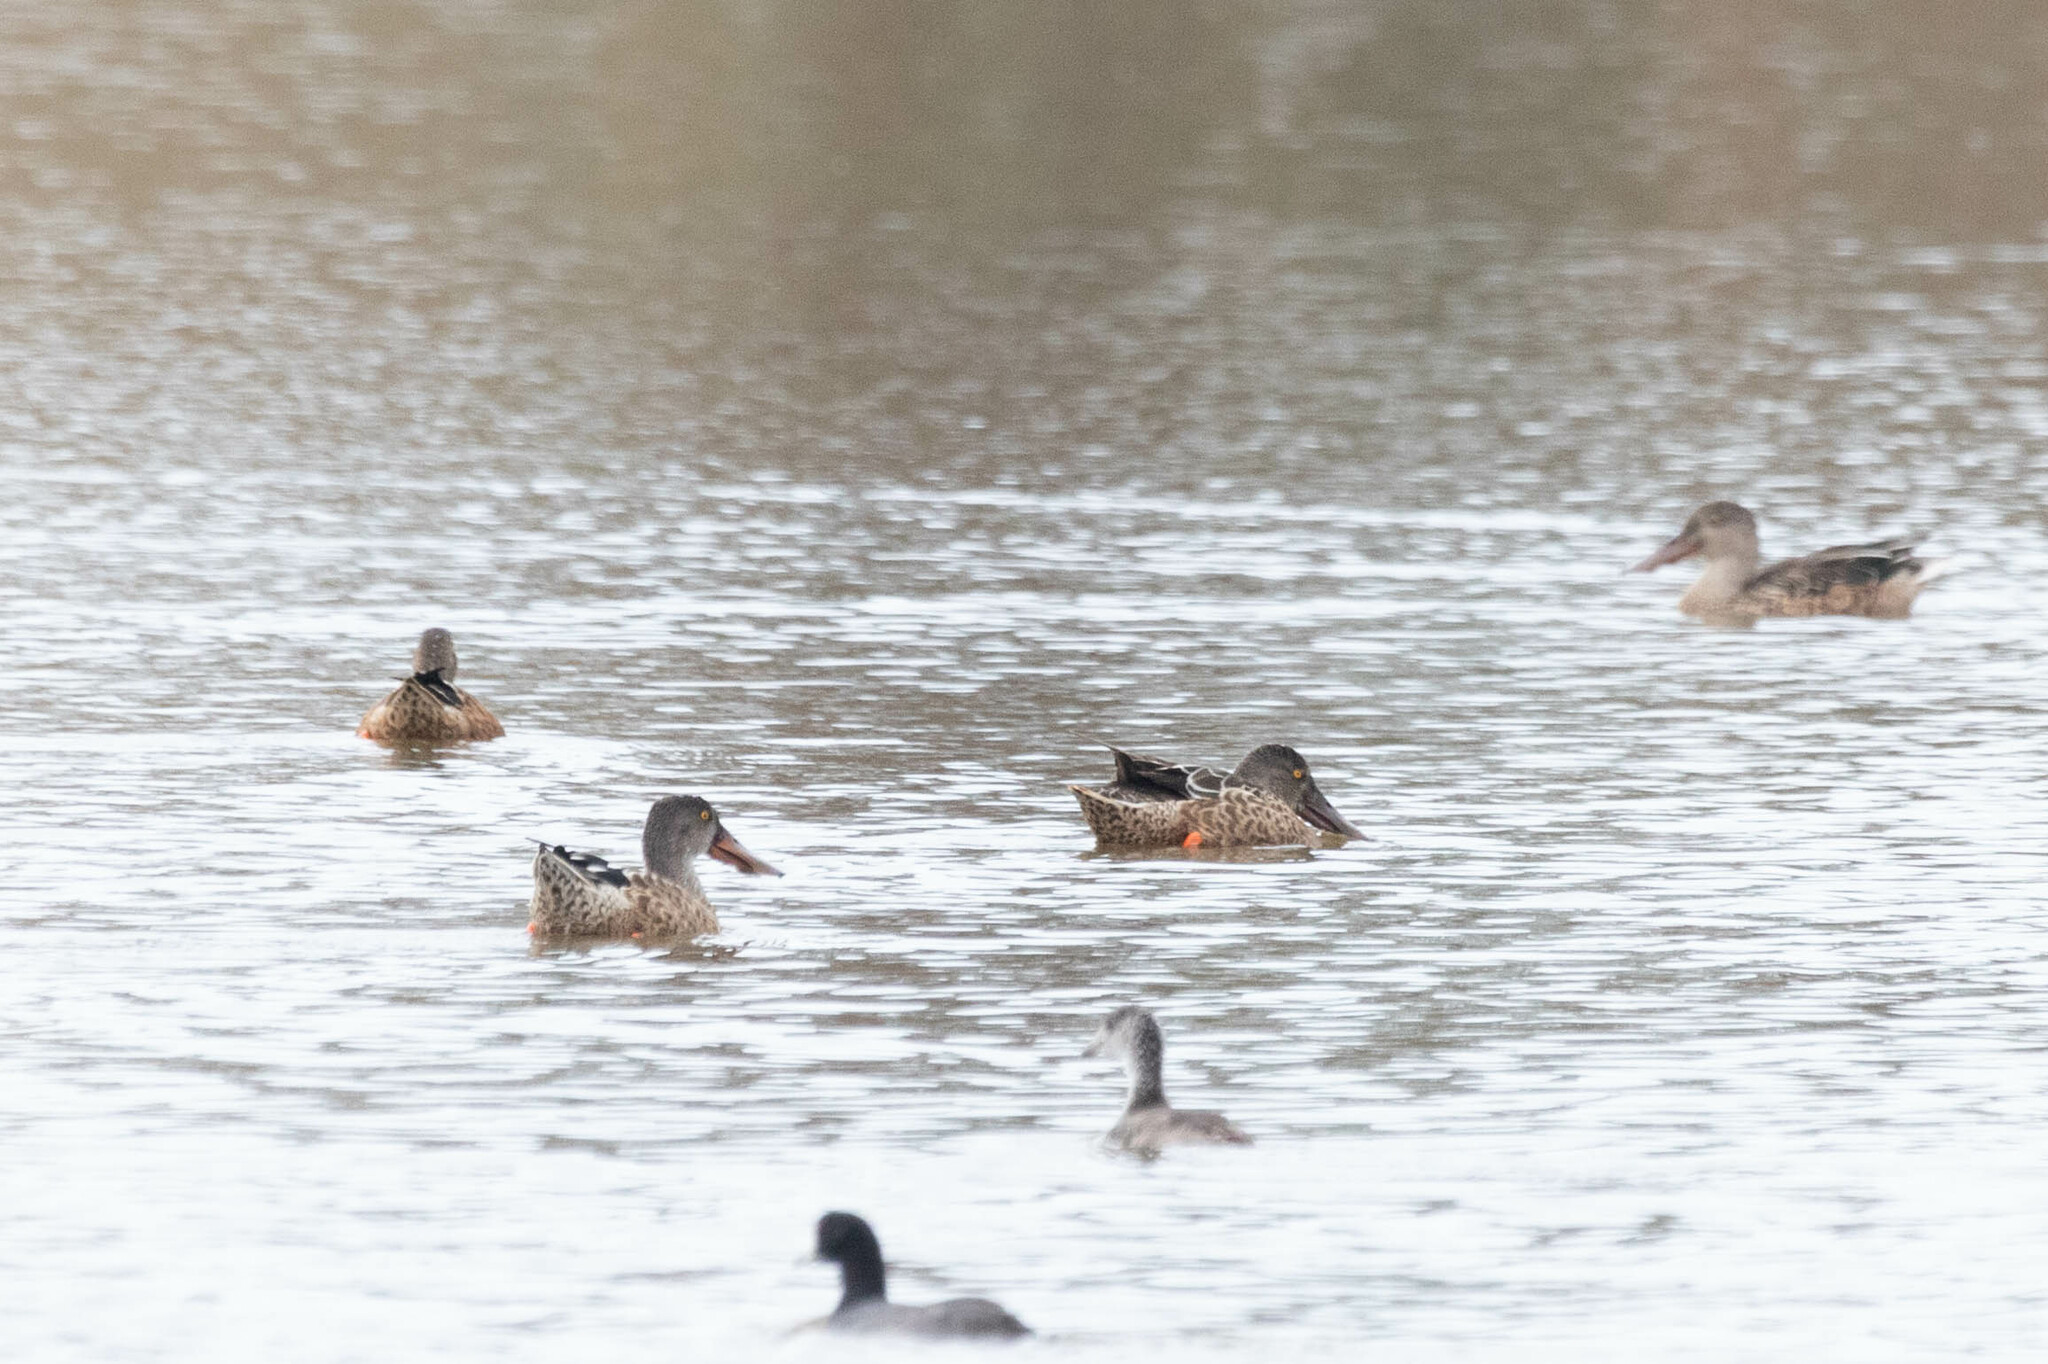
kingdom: Animalia
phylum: Chordata
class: Aves
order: Anseriformes
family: Anatidae
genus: Spatula
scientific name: Spatula clypeata
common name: Northern shoveler
